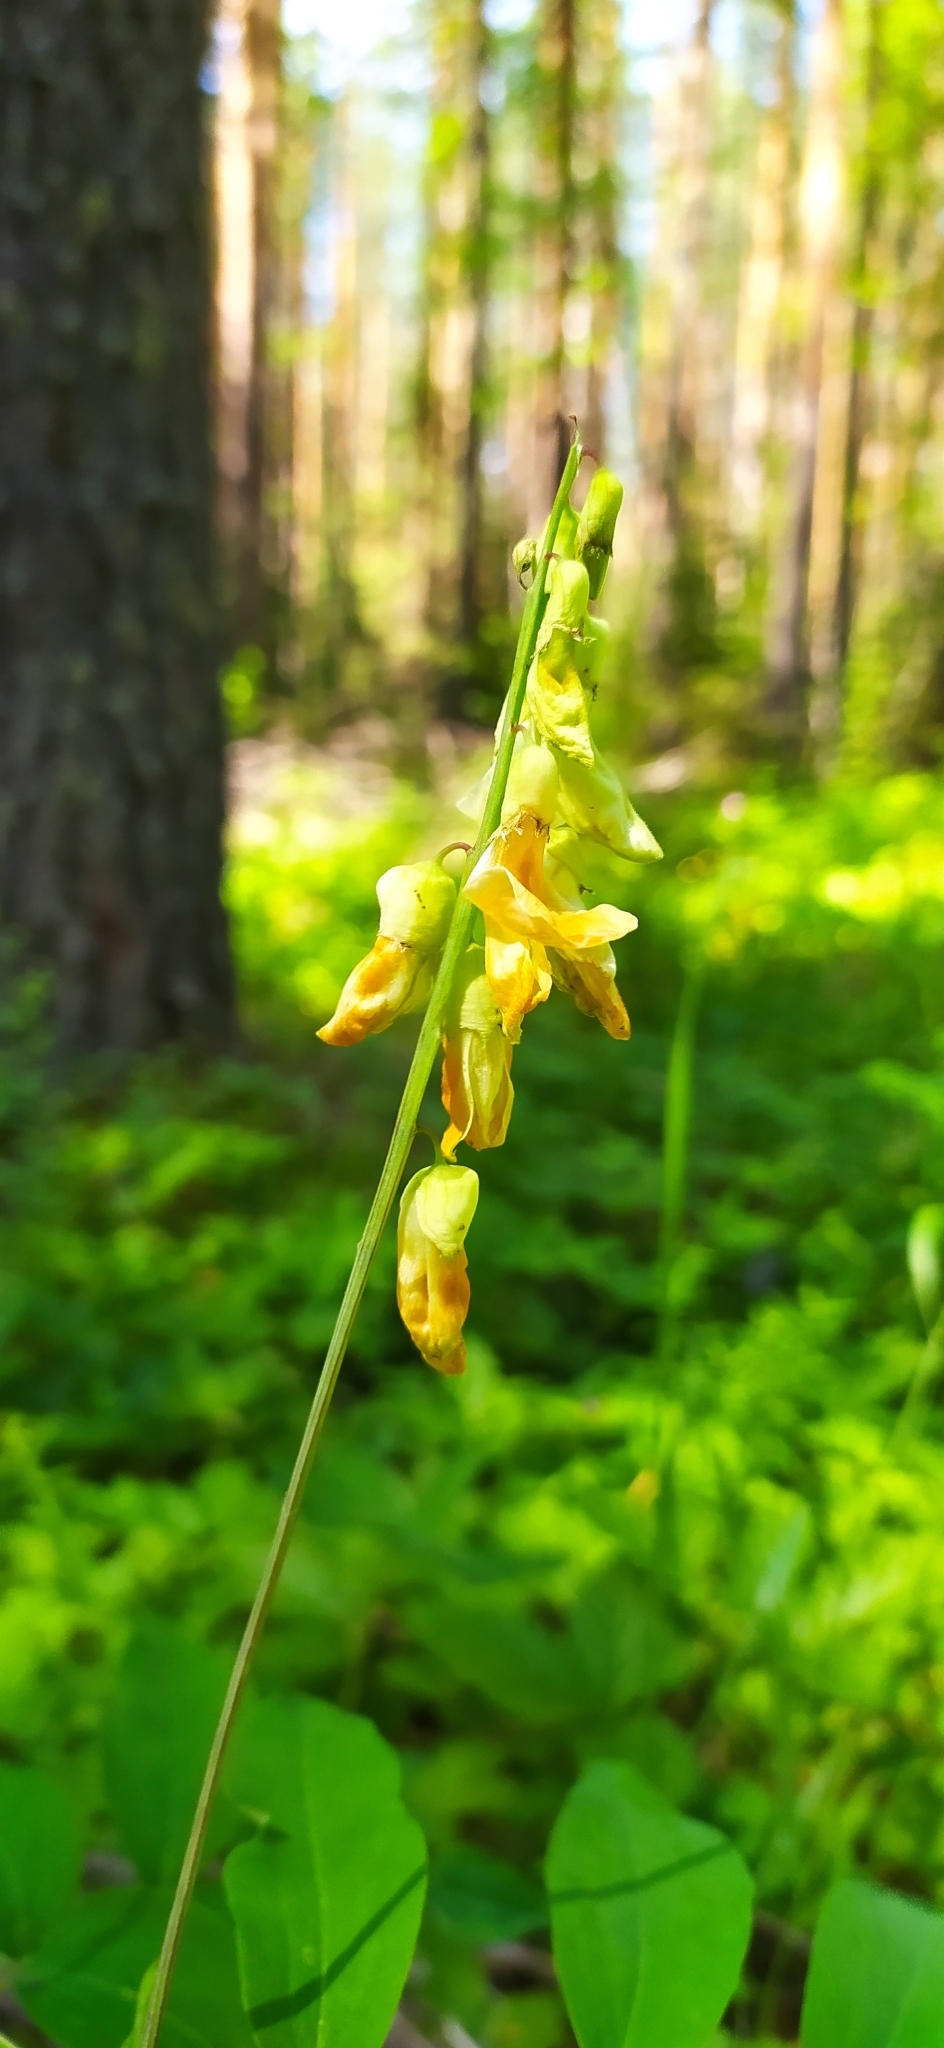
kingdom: Plantae
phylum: Tracheophyta
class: Magnoliopsida
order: Fabales
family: Fabaceae
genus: Lathyrus
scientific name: Lathyrus gmelinii
